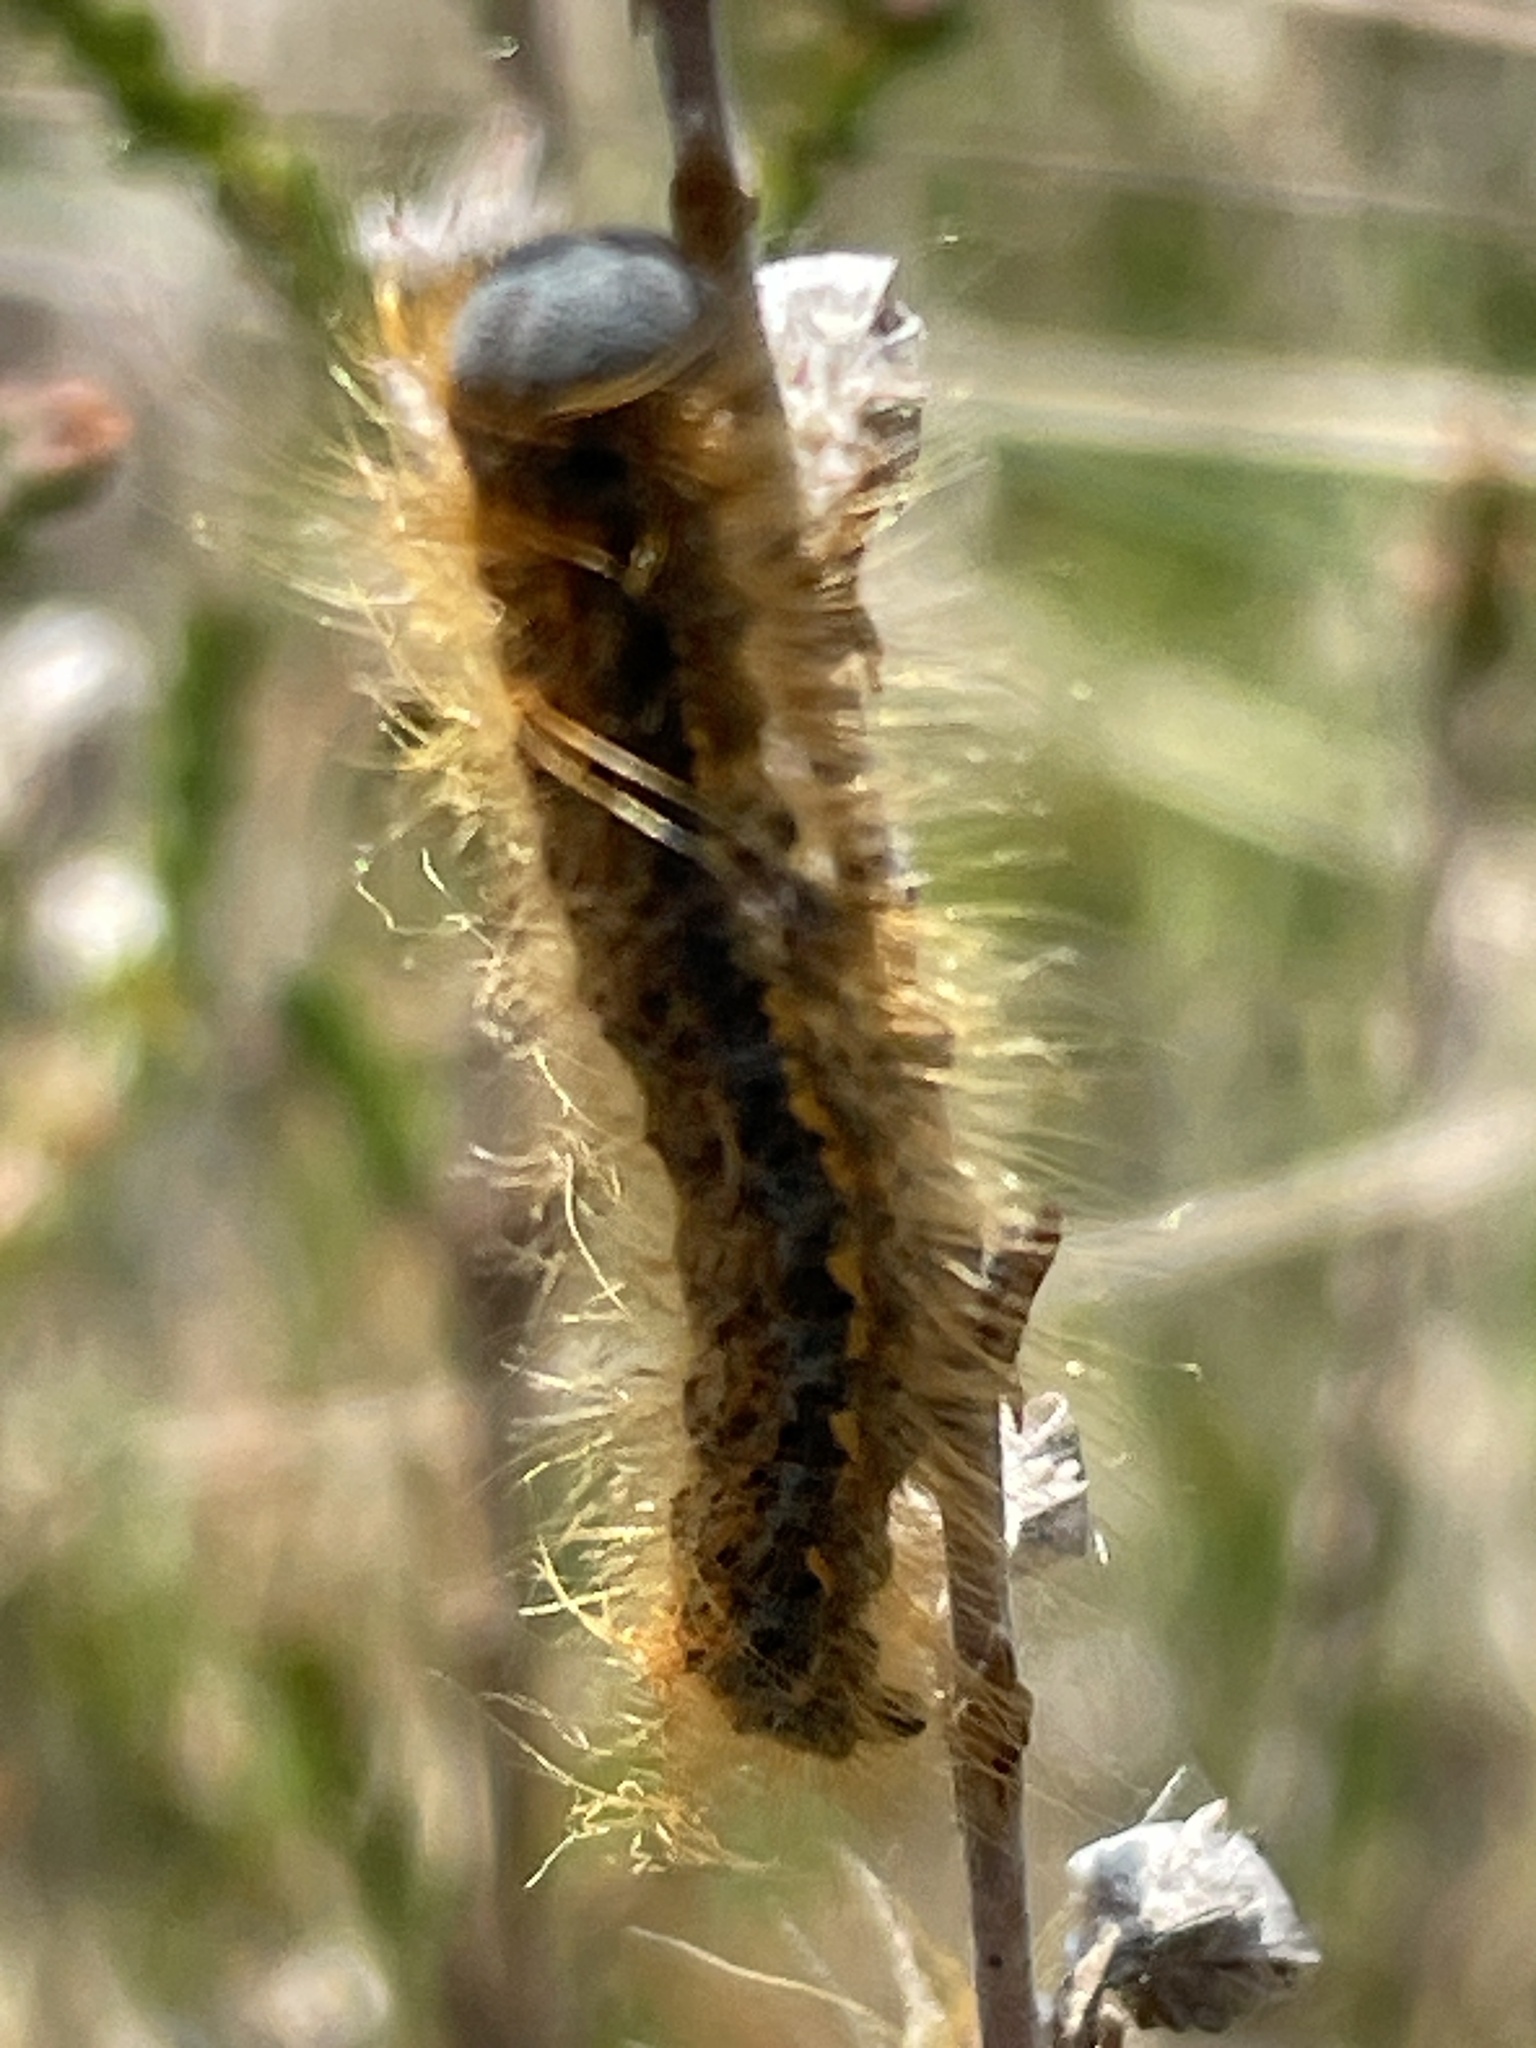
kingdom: Animalia
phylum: Arthropoda
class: Insecta
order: Lepidoptera
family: Lasiocampidae
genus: Malacosoma
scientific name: Malacosoma castrense
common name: Ground lackey
